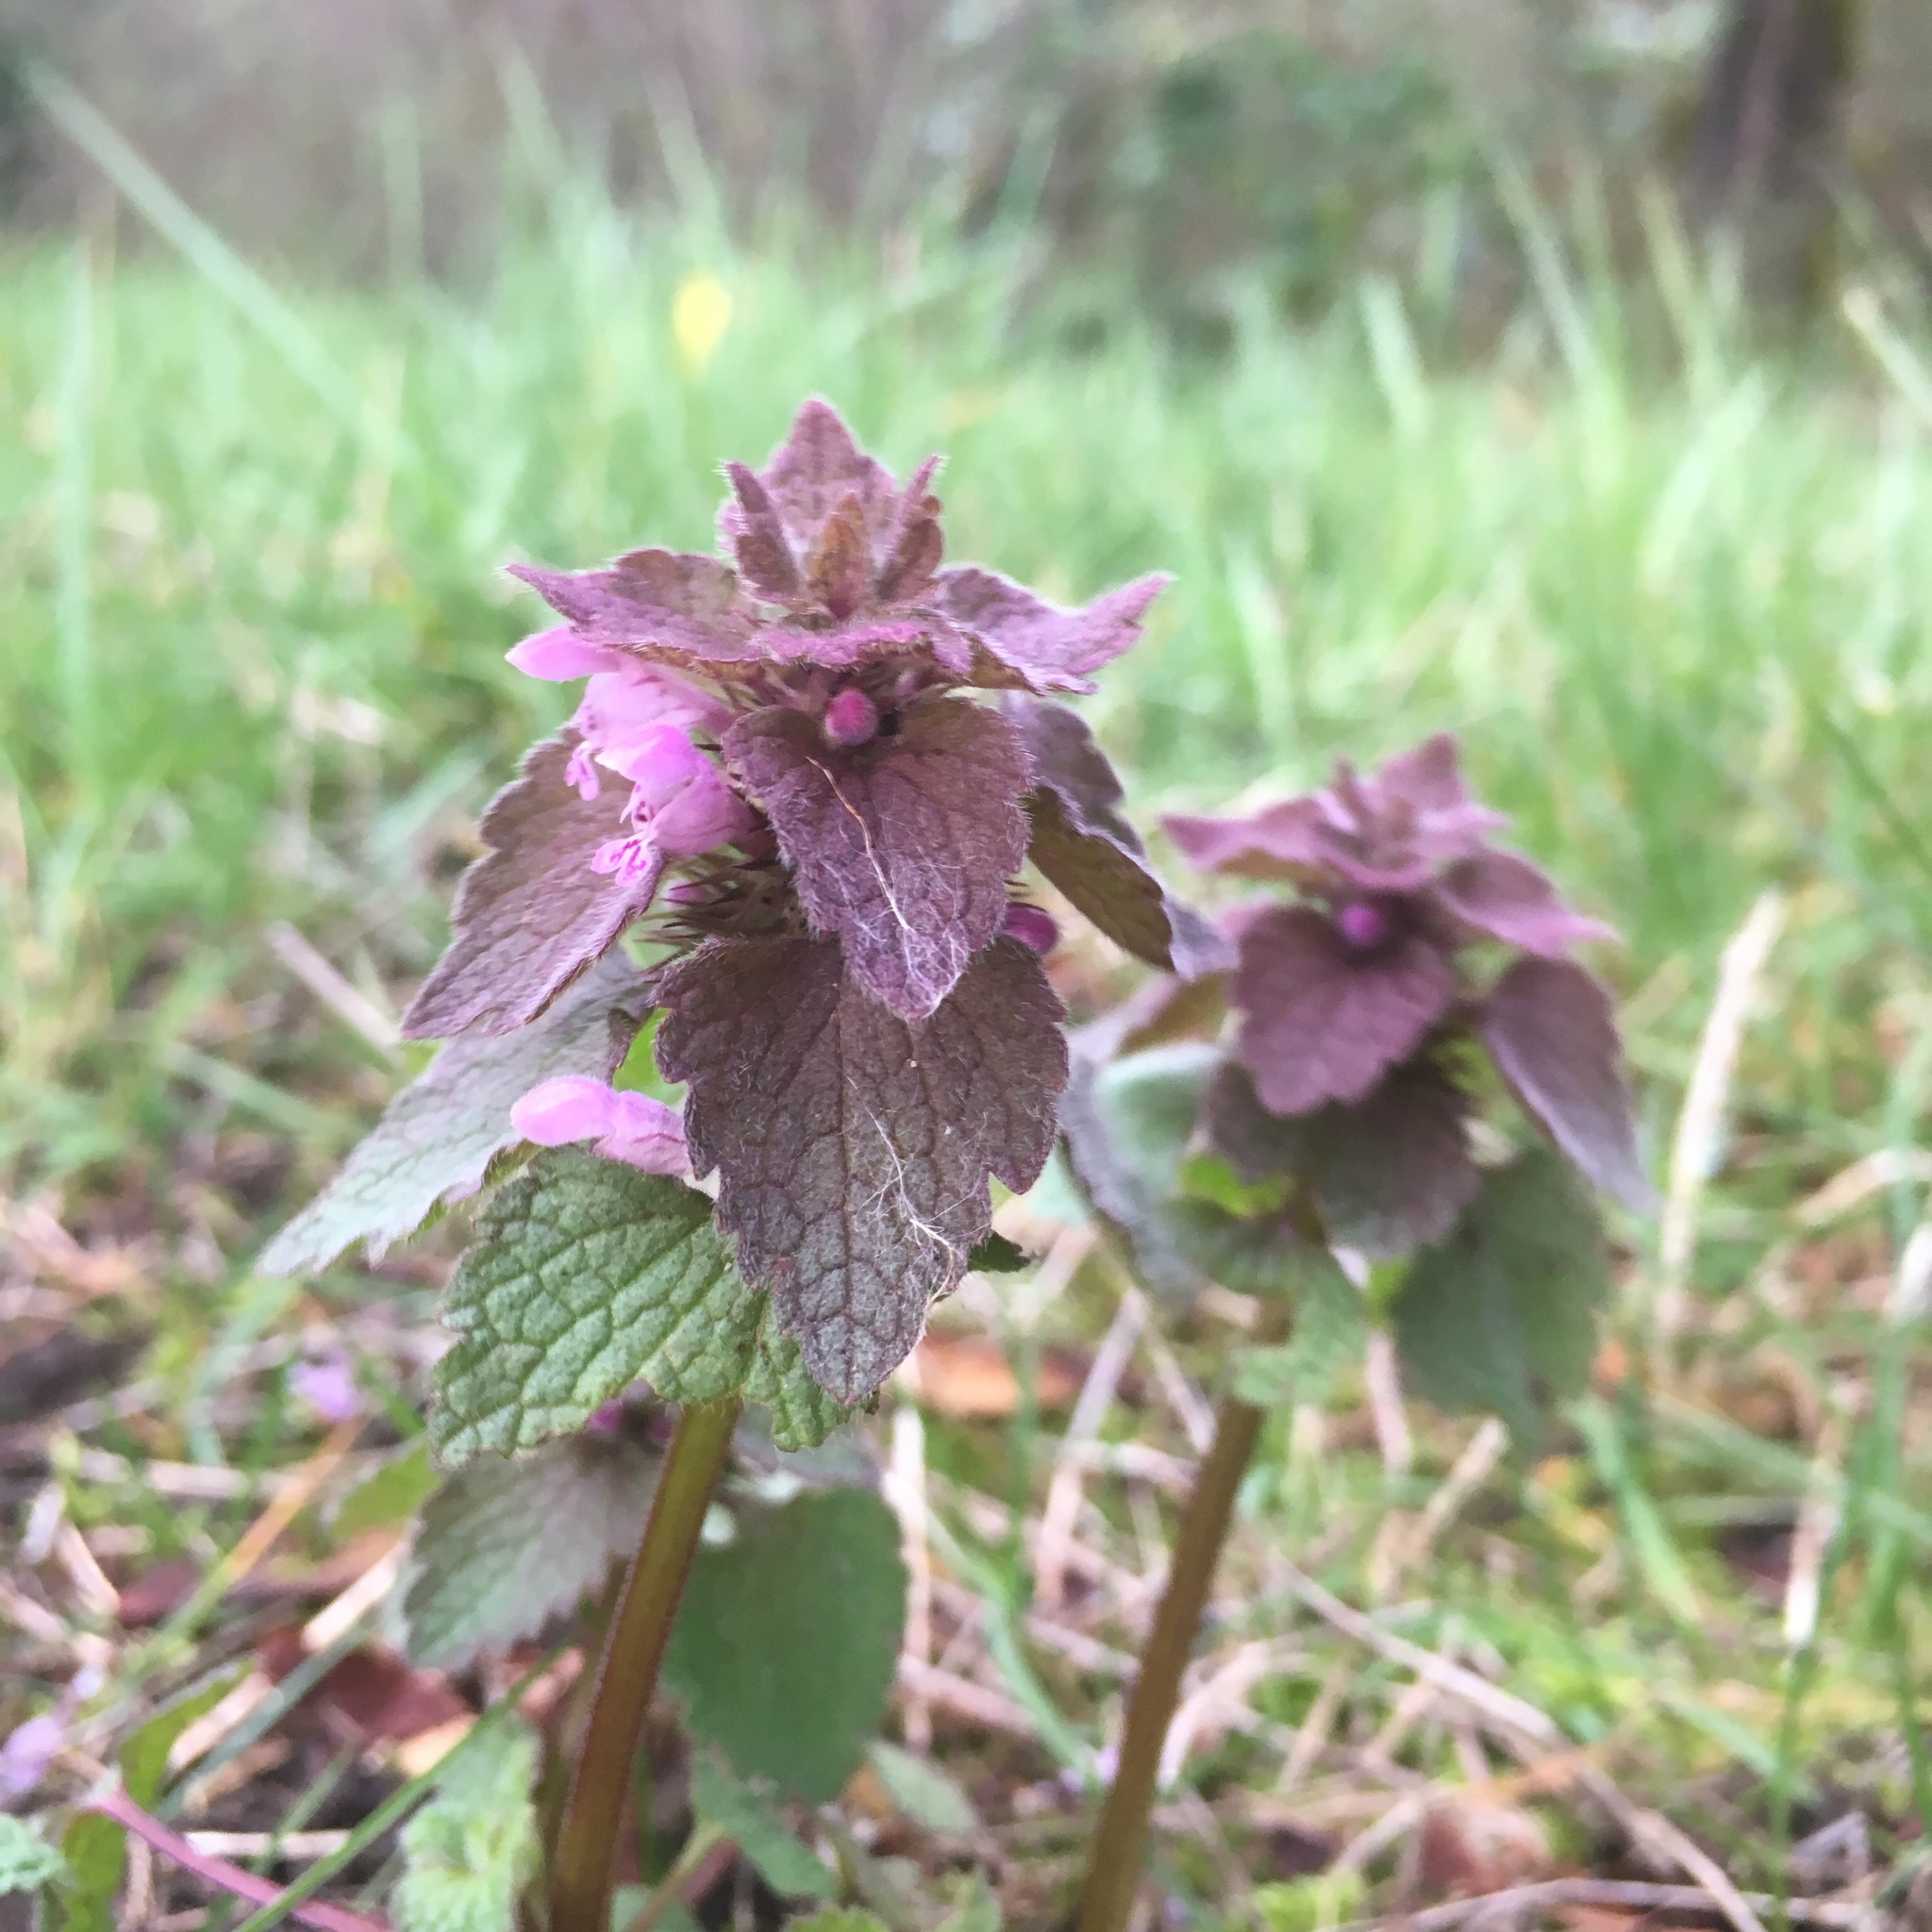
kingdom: Plantae
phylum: Tracheophyta
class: Magnoliopsida
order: Lamiales
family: Lamiaceae
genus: Lamium
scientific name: Lamium purpureum
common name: Red dead-nettle
